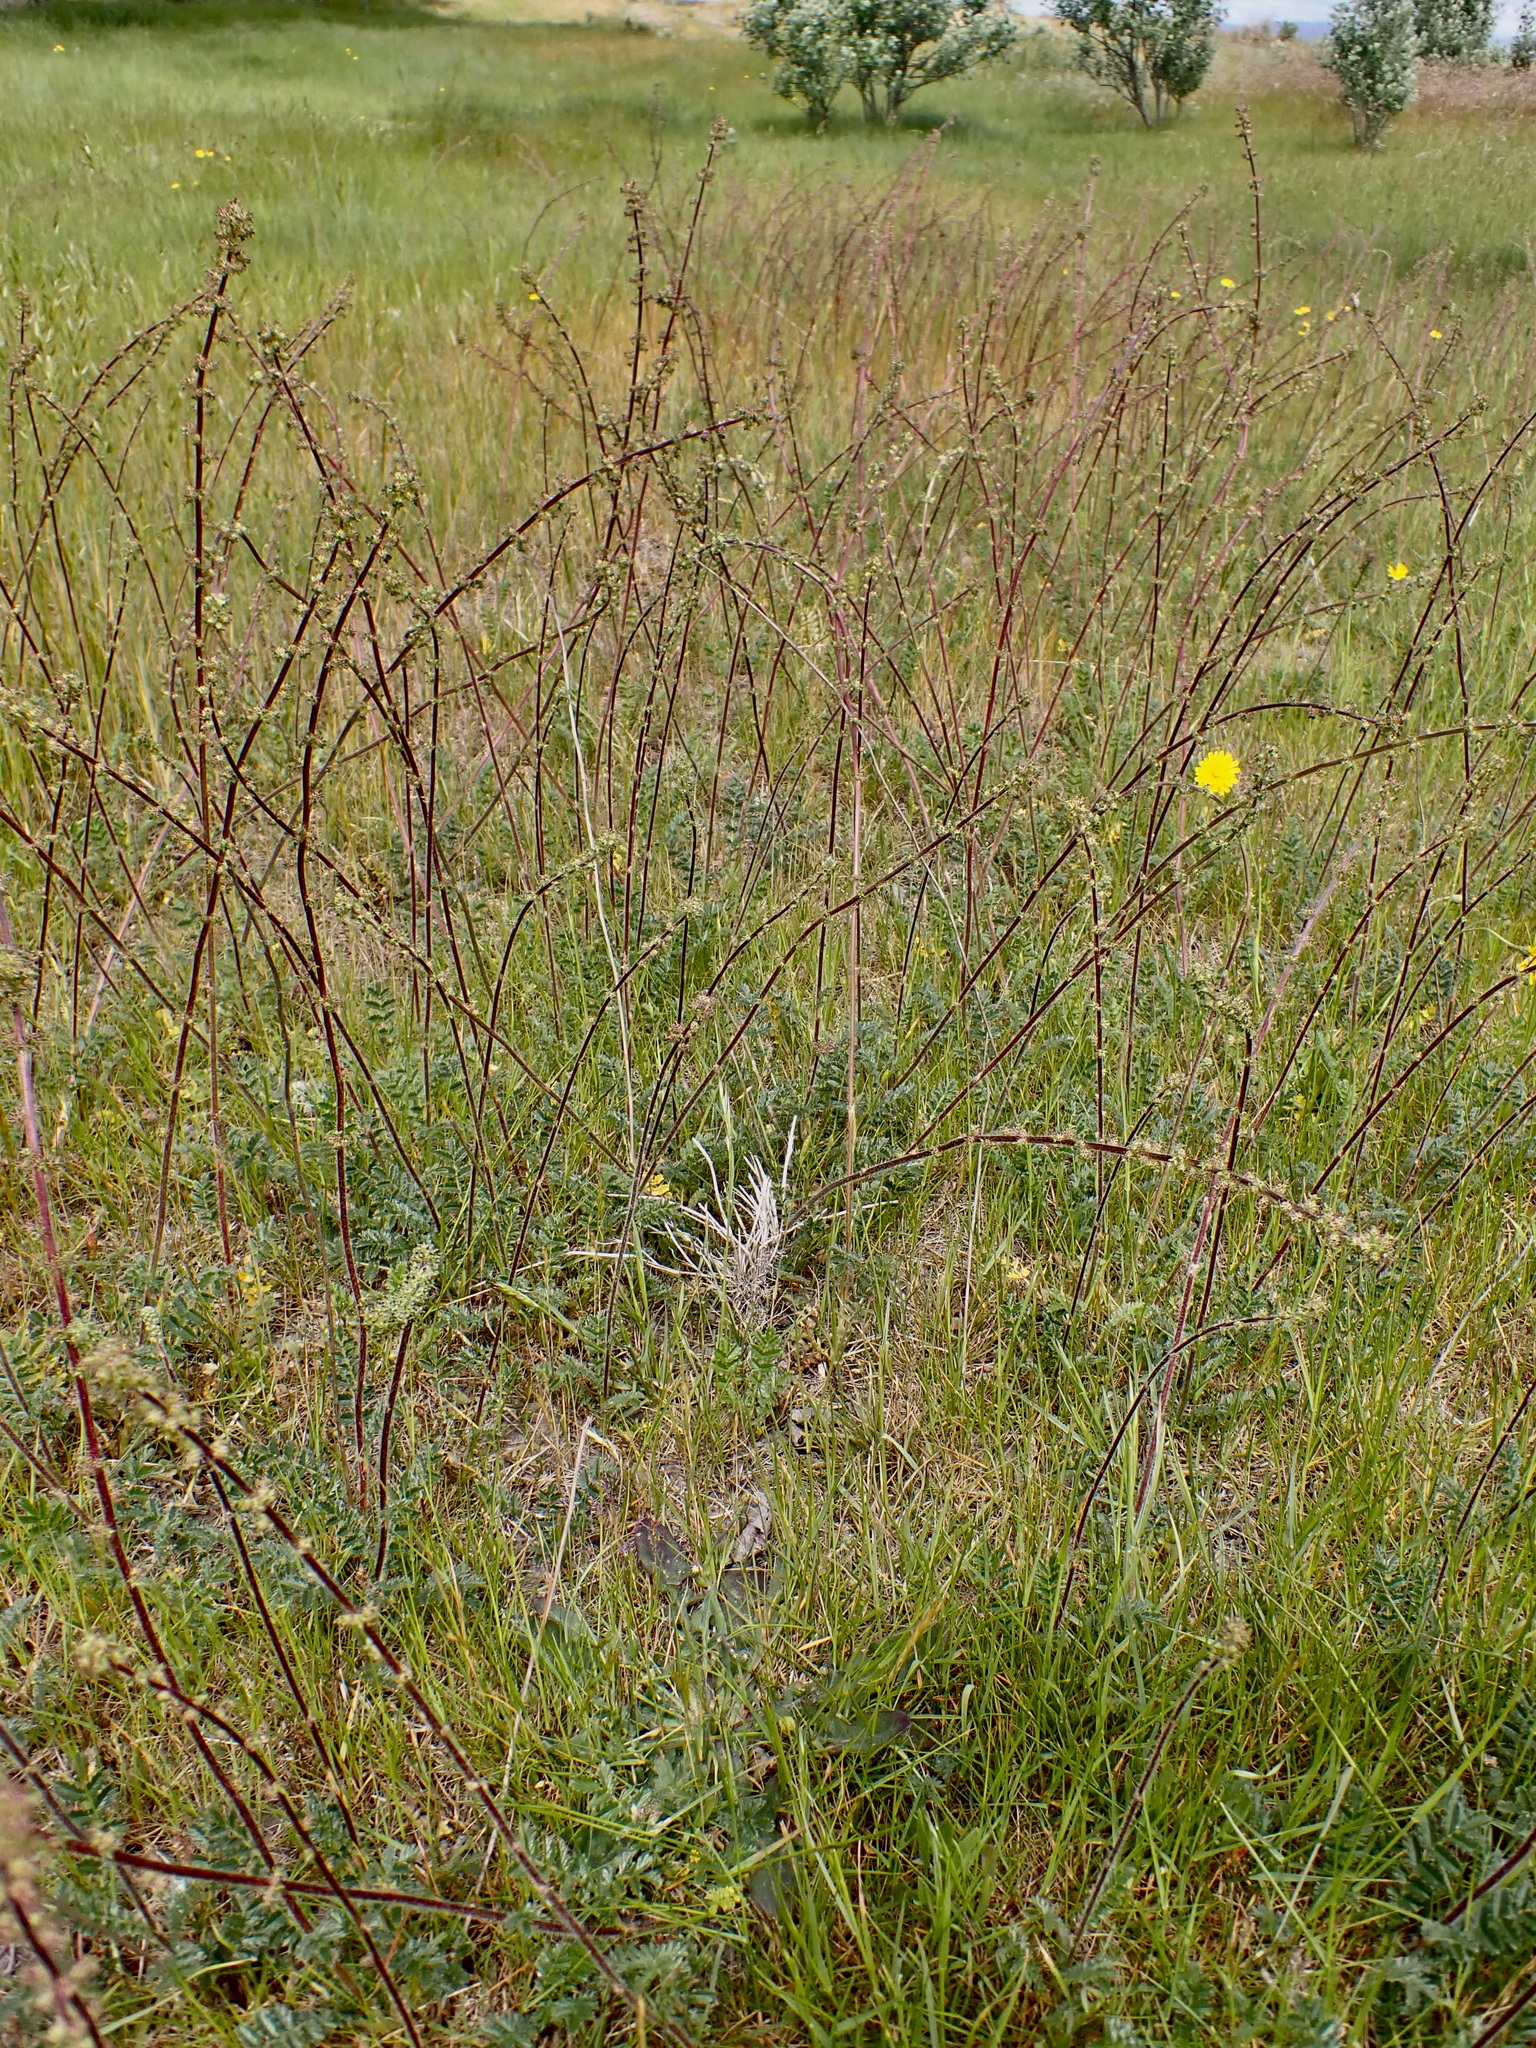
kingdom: Plantae
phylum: Tracheophyta
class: Magnoliopsida
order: Rosales
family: Rosaceae
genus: Acaena
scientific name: Acaena agnipila
